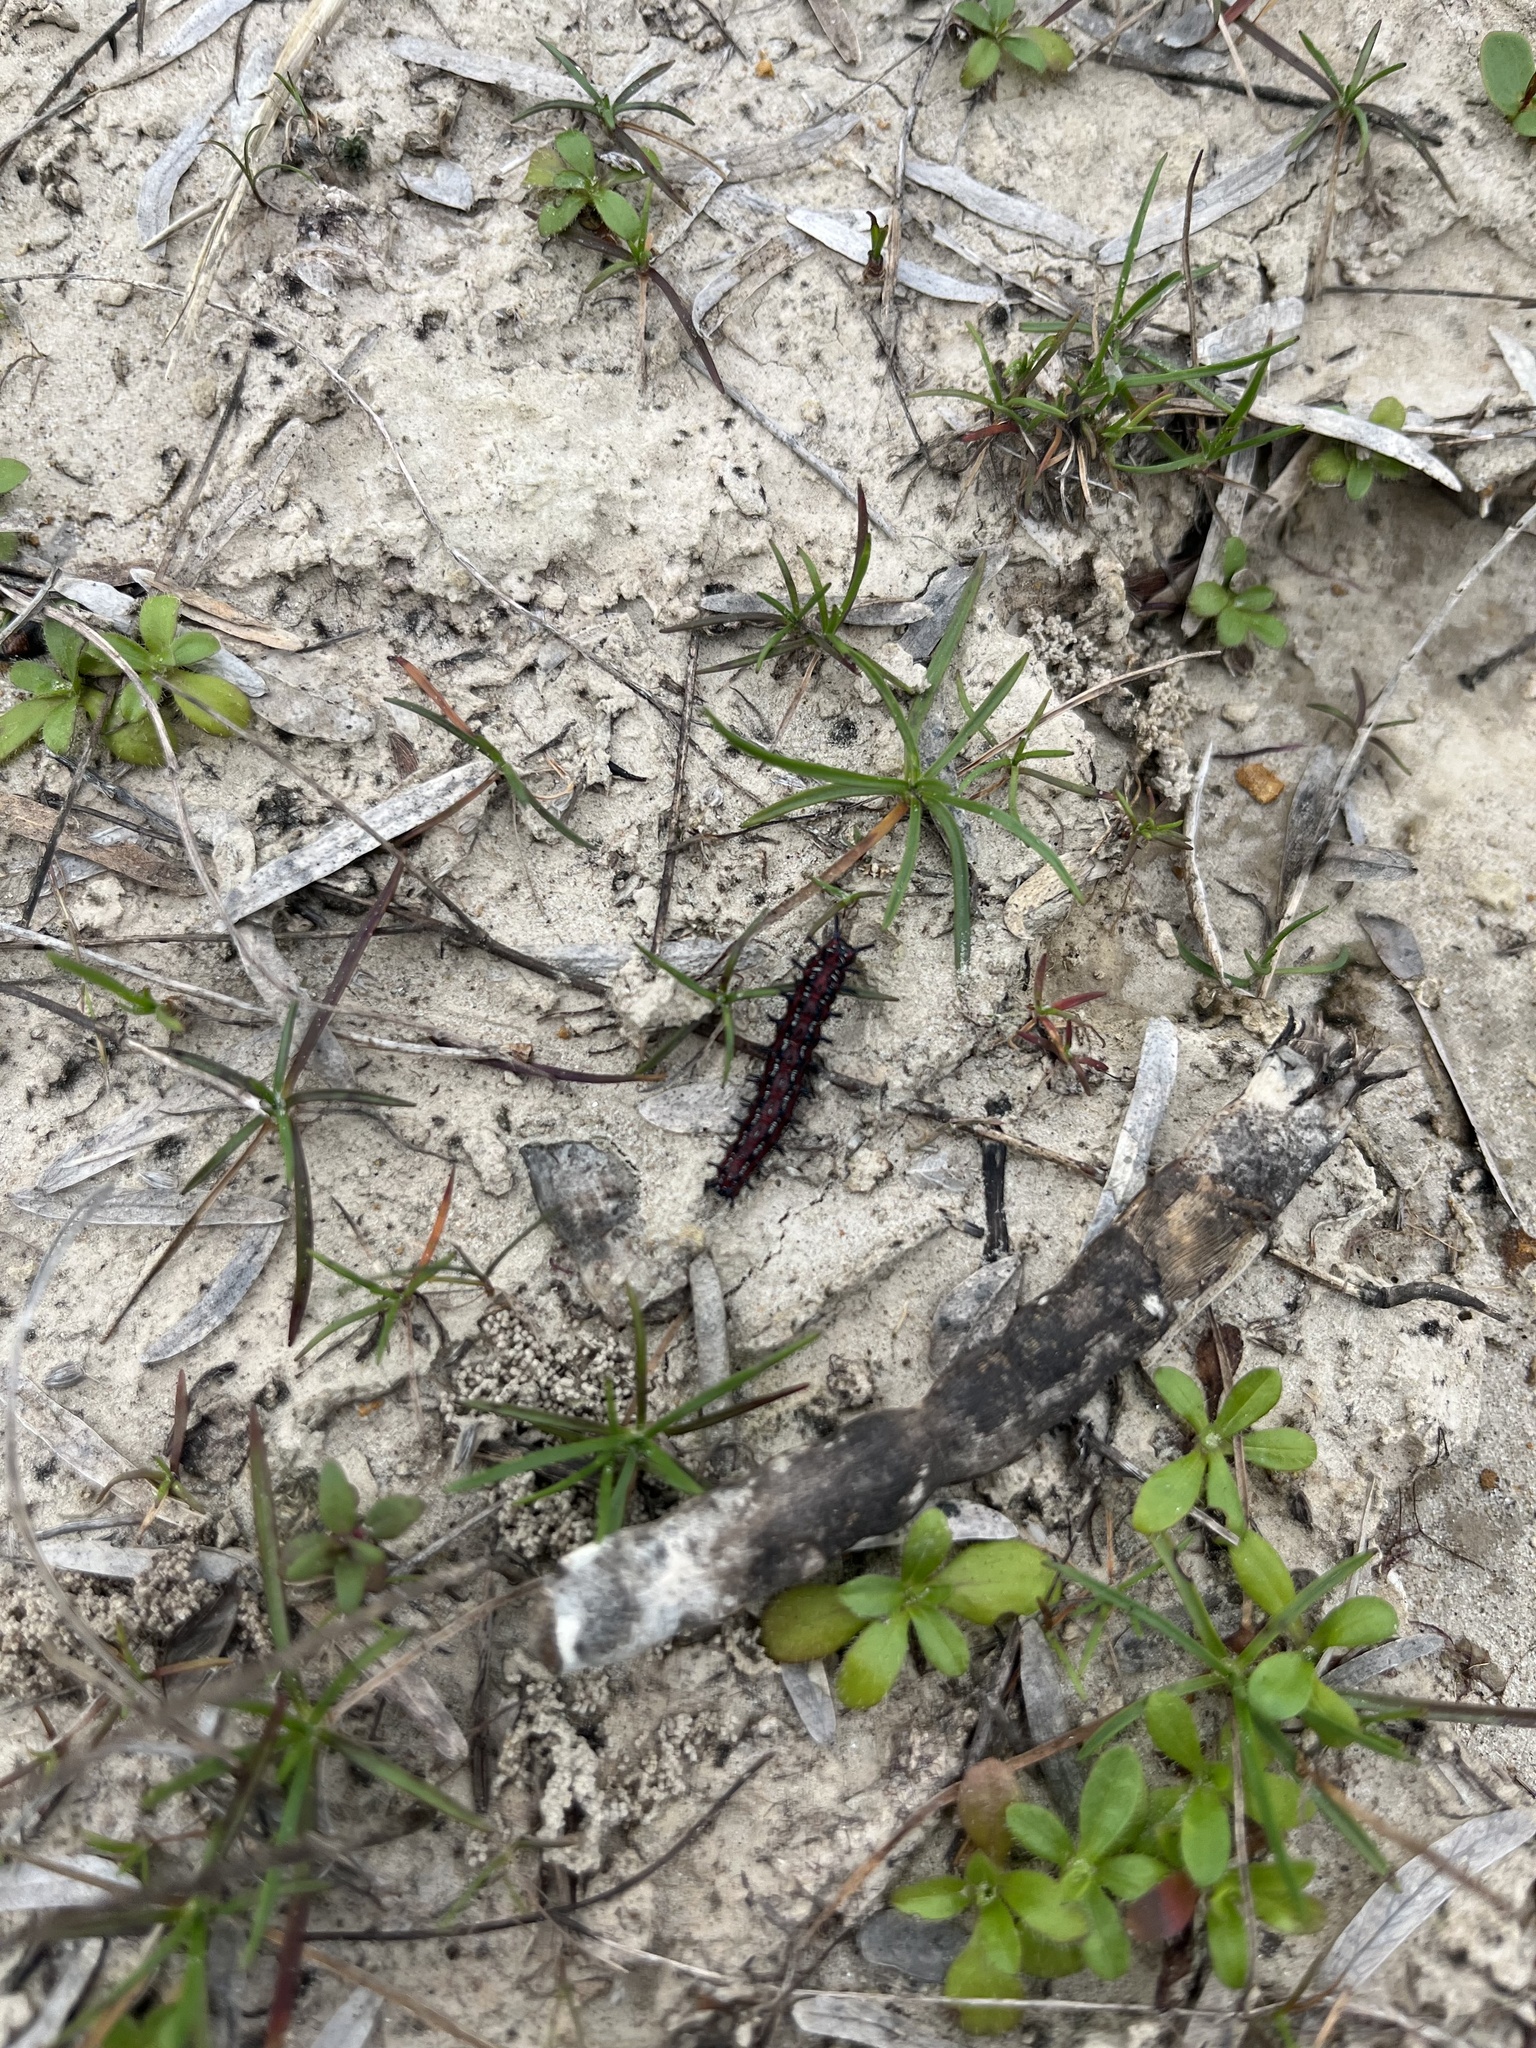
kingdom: Animalia
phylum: Arthropoda
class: Insecta
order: Lepidoptera
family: Nymphalidae
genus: Euptoieta
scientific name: Euptoieta claudia
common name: Variegated fritillary
